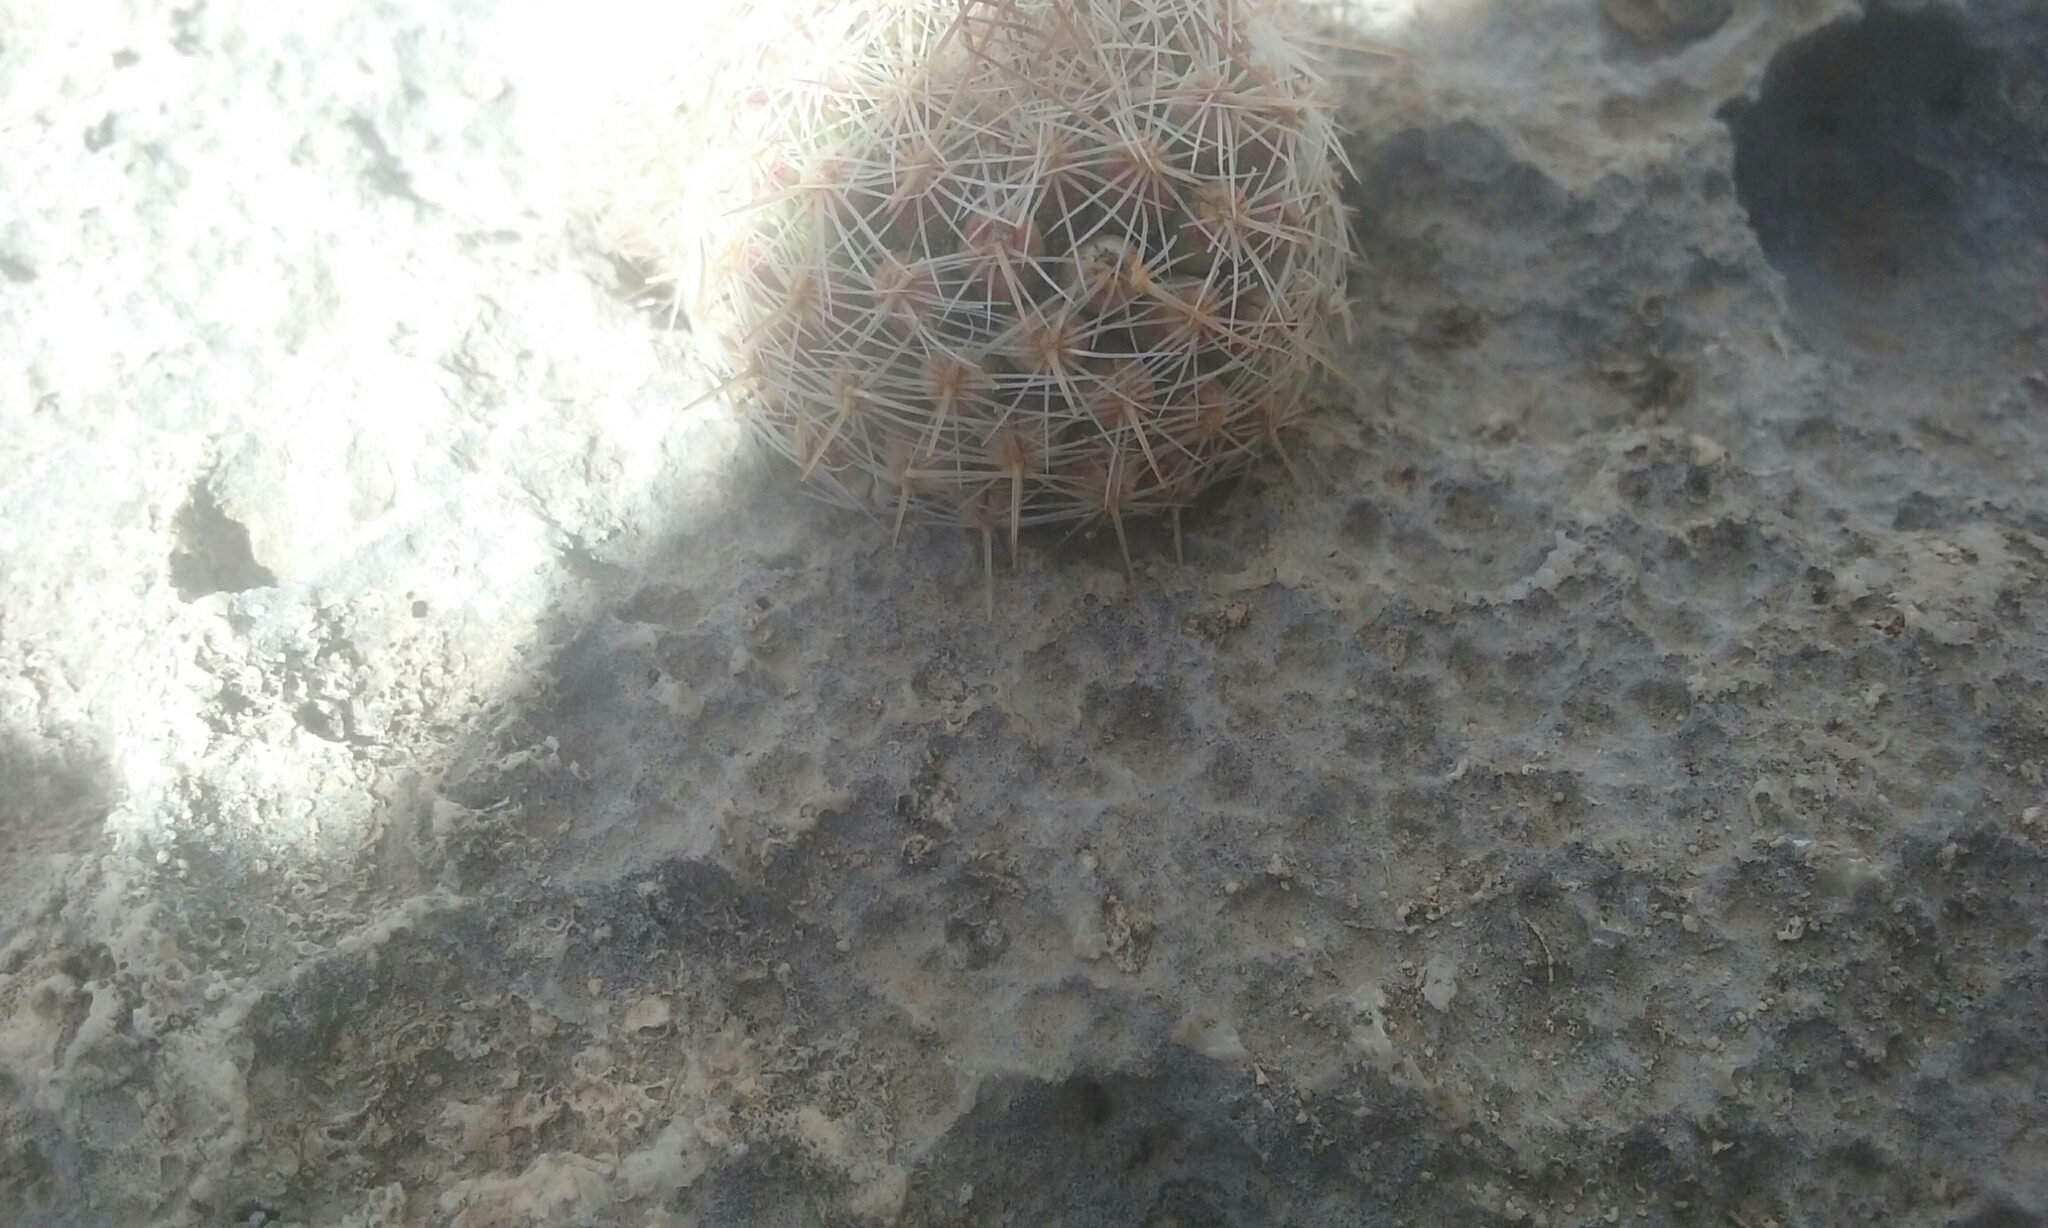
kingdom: Plantae
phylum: Tracheophyta
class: Magnoliopsida
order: Caryophyllales
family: Cactaceae
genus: Pelecyphora
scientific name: Pelecyphora tuberculosa
